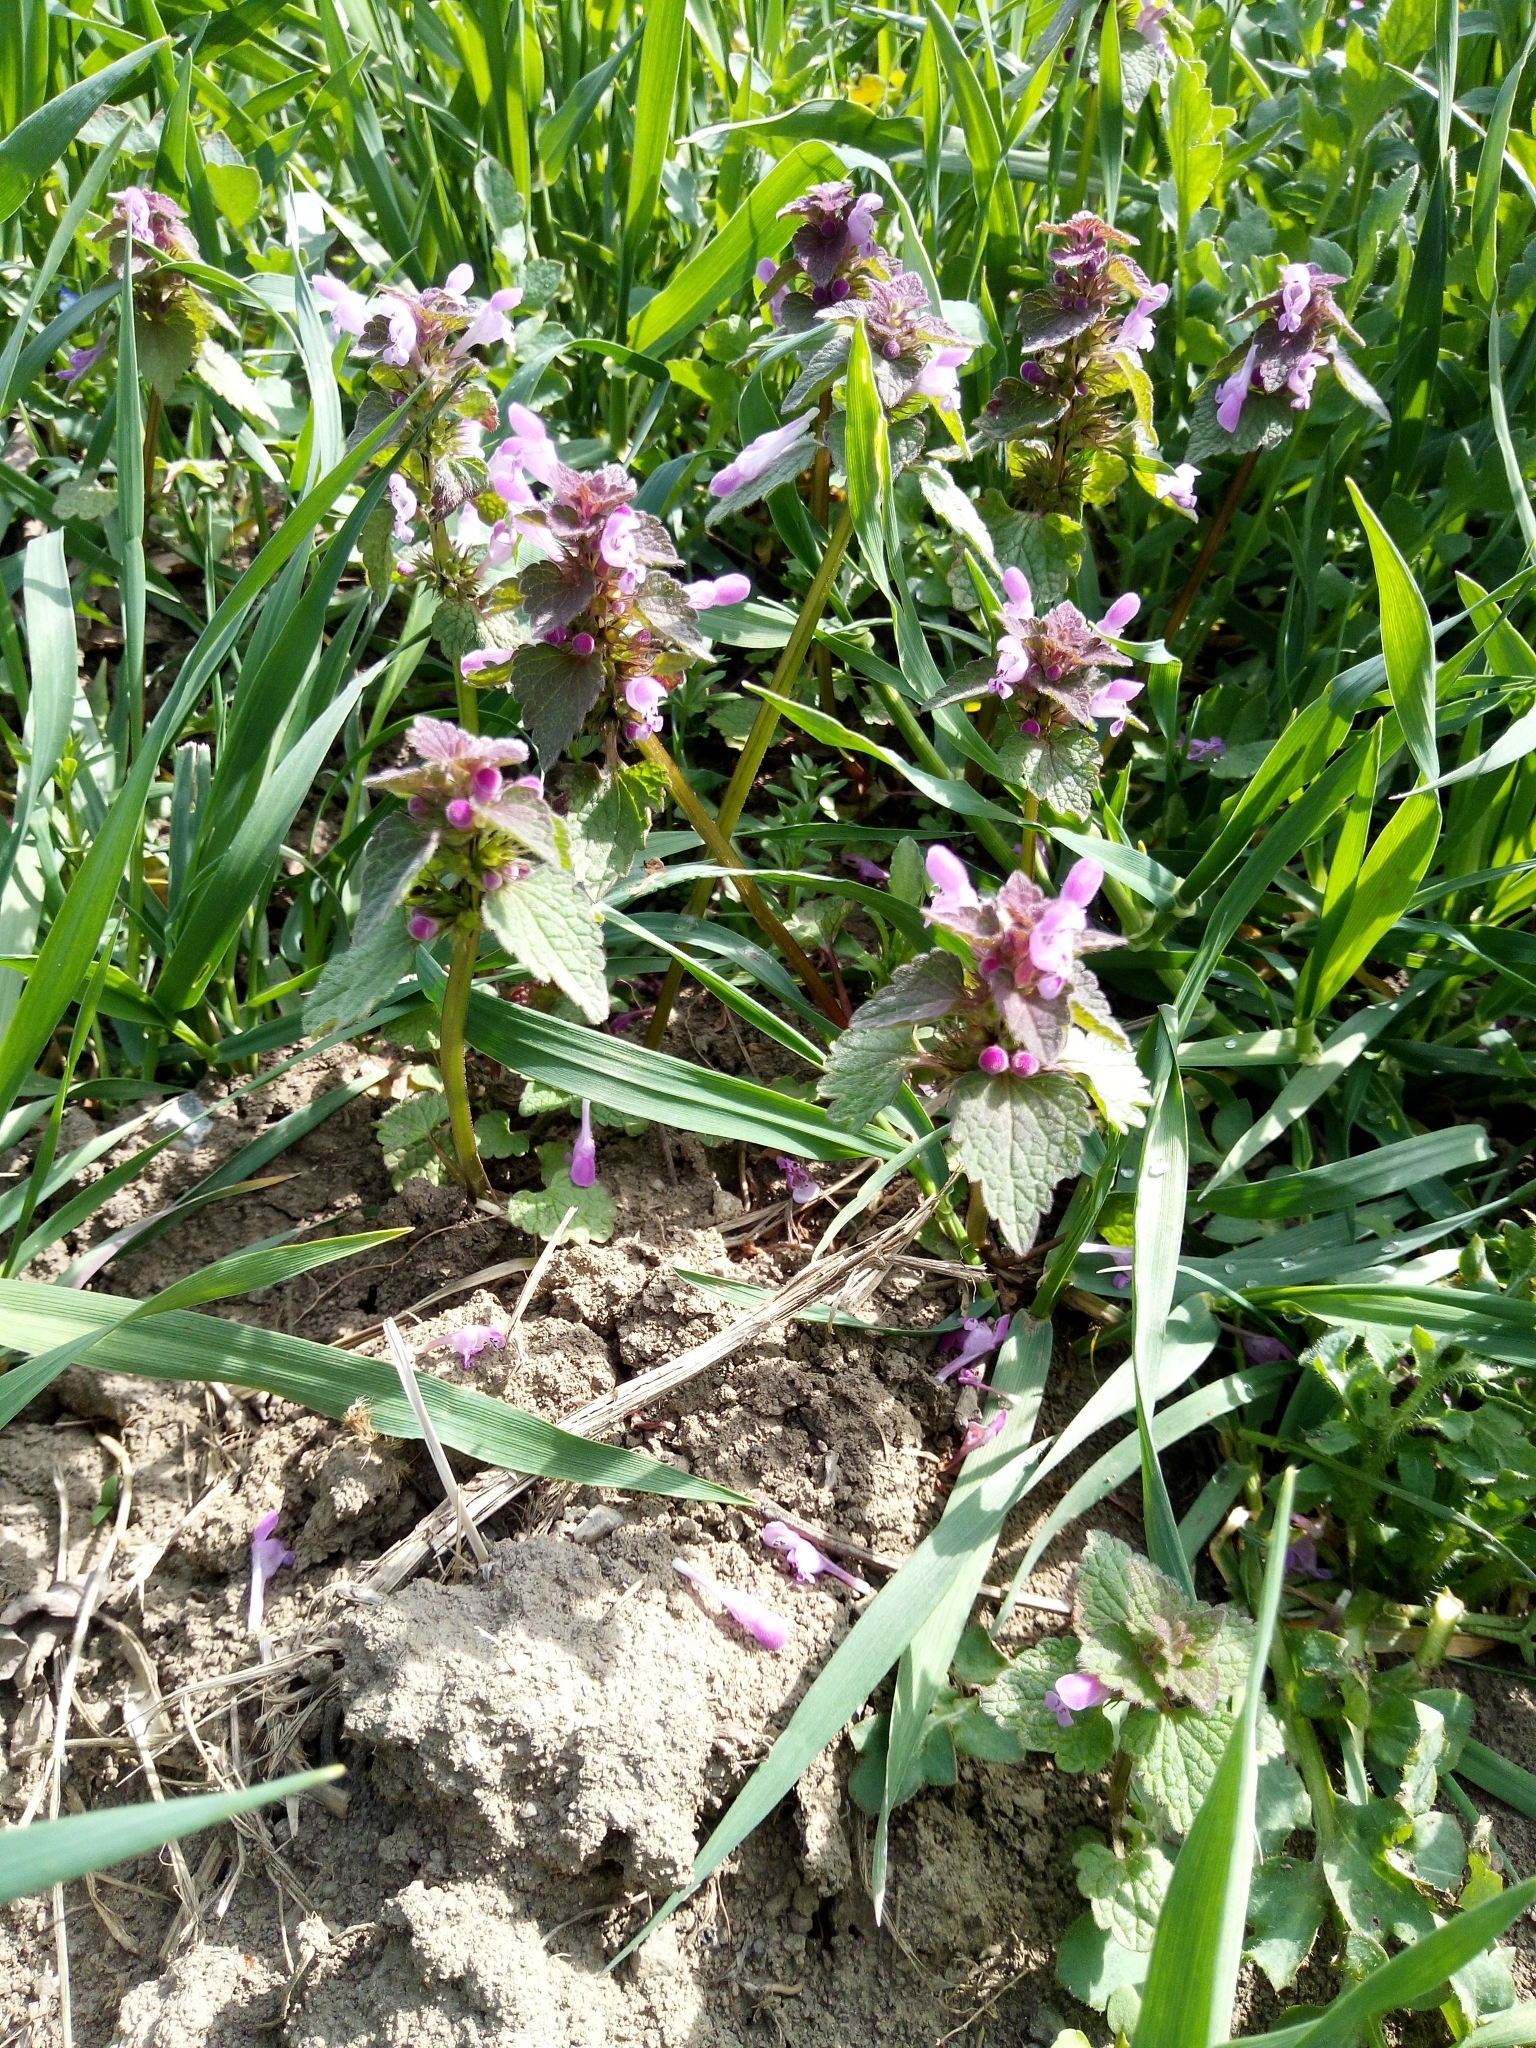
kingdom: Plantae
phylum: Tracheophyta
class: Magnoliopsida
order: Lamiales
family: Lamiaceae
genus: Lamium
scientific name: Lamium purpureum
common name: Red dead-nettle
